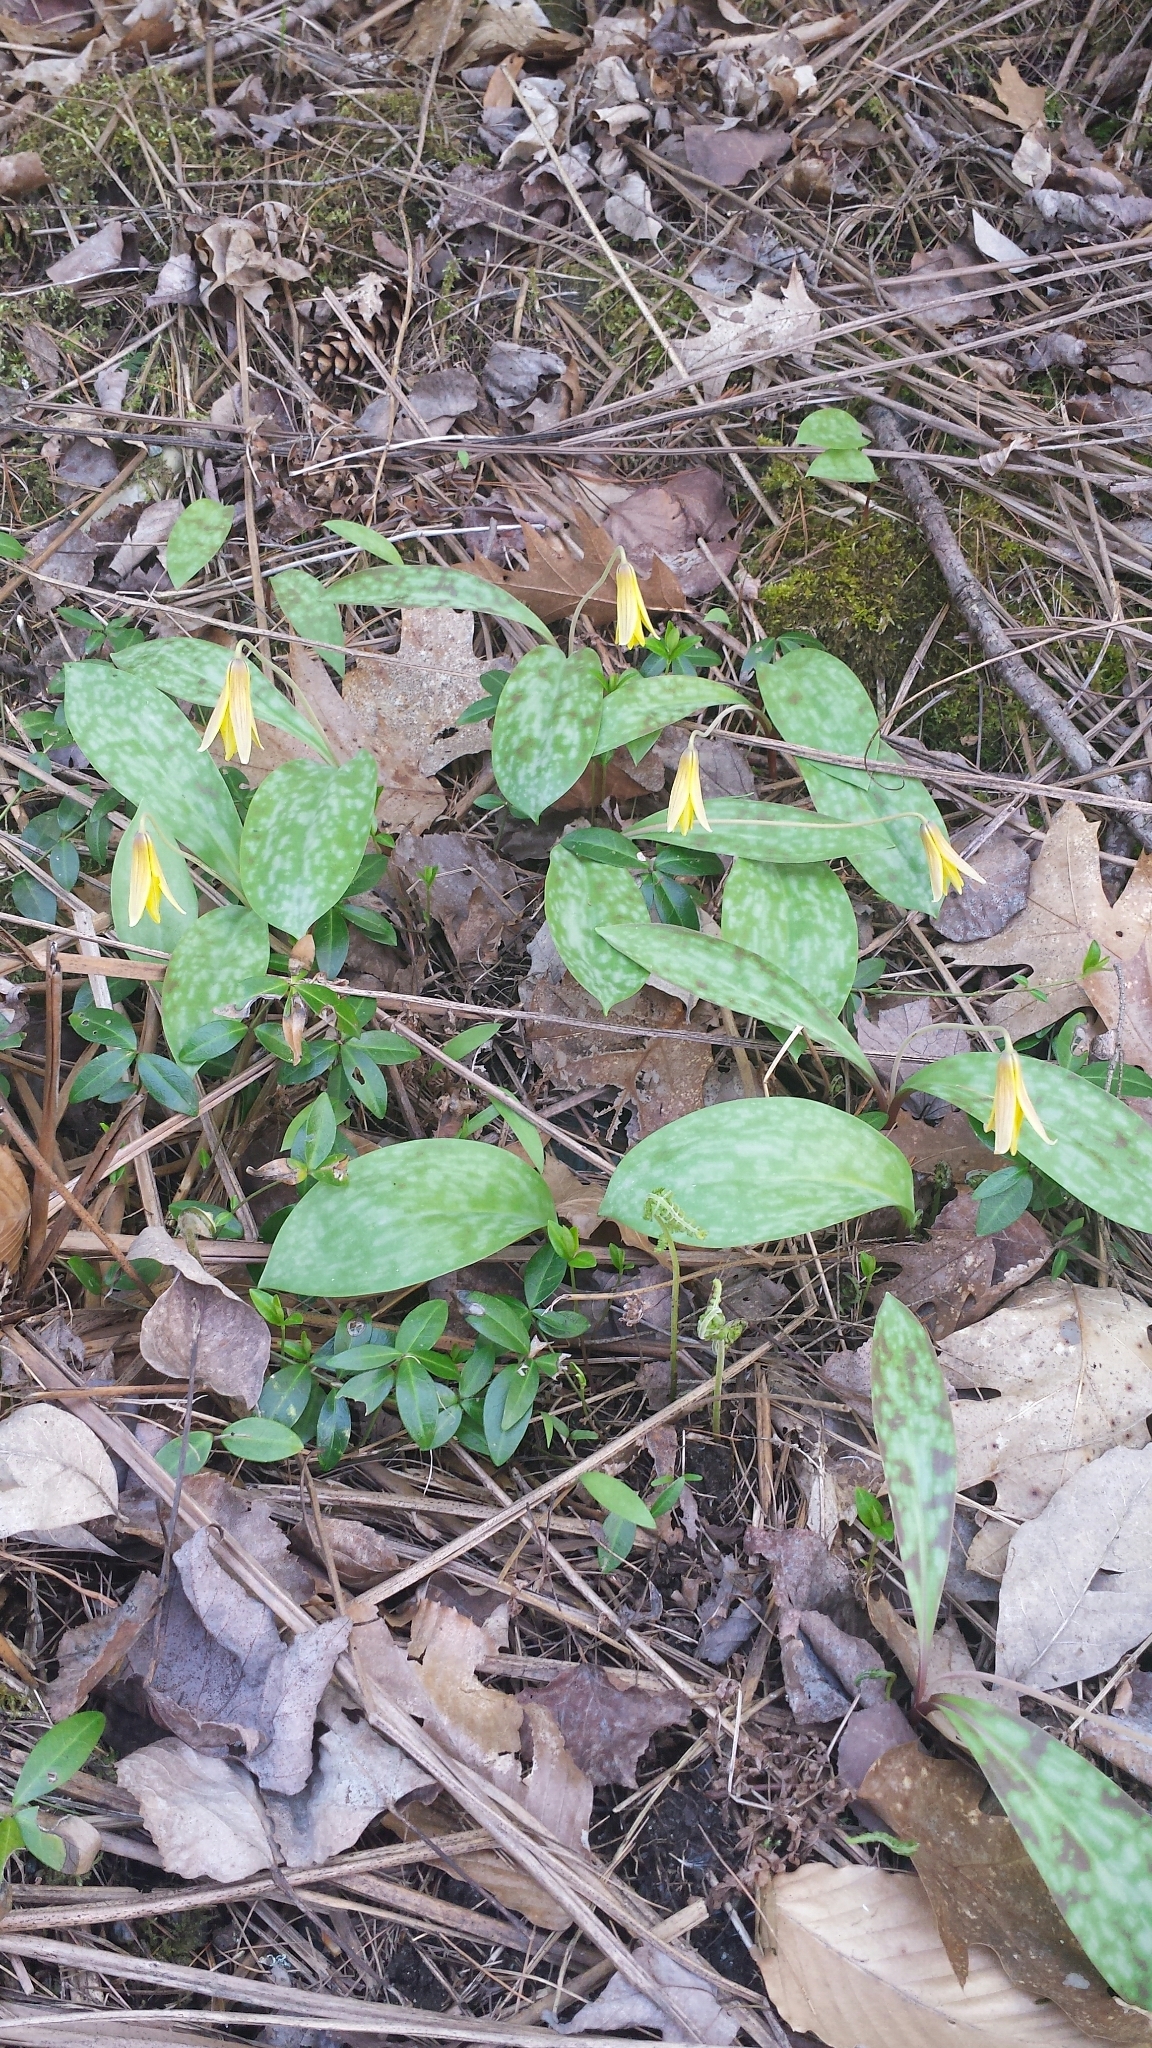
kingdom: Plantae
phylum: Tracheophyta
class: Liliopsida
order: Liliales
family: Liliaceae
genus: Erythronium
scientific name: Erythronium americanum
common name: Yellow adder's-tongue
